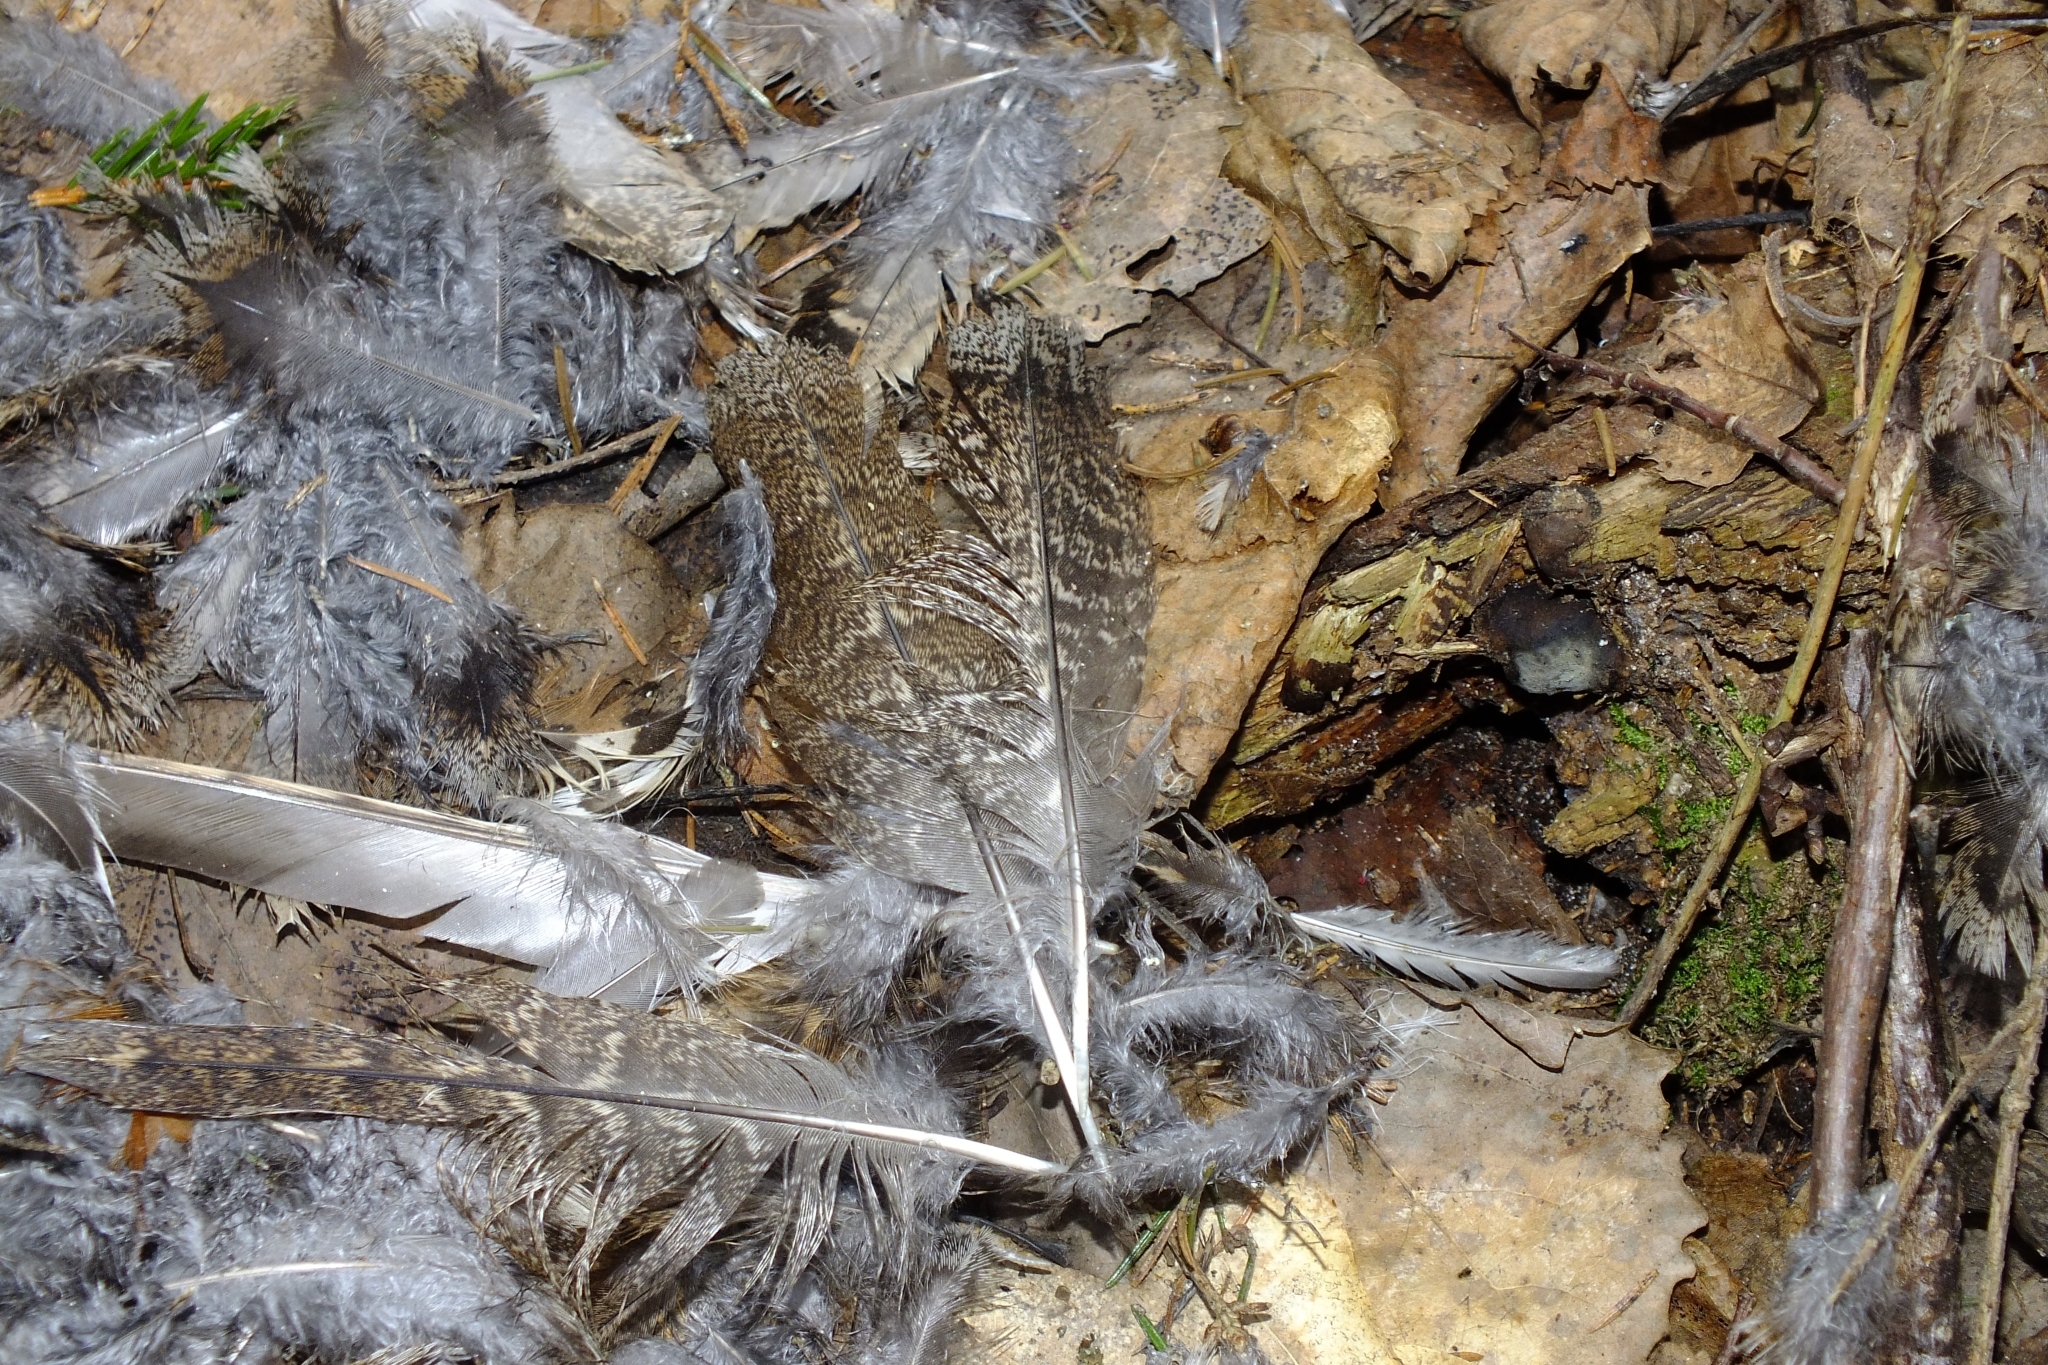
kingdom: Animalia
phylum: Chordata
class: Aves
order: Galliformes
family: Phasianidae
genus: Tetrastes
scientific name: Tetrastes bonasia
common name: Hazel grouse
